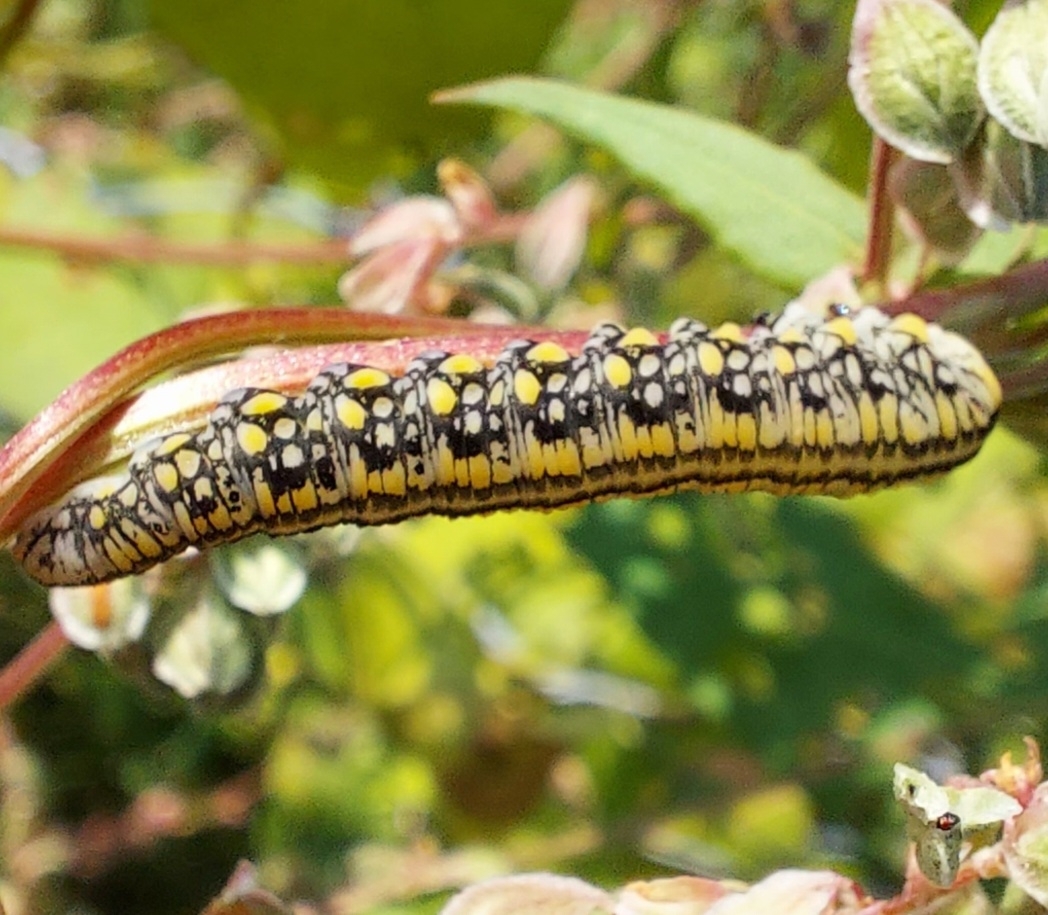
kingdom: Animalia
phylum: Arthropoda
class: Insecta
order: Hymenoptera
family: Diprionidae
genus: Diprion
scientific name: Diprion similis
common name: Pine sawfly
